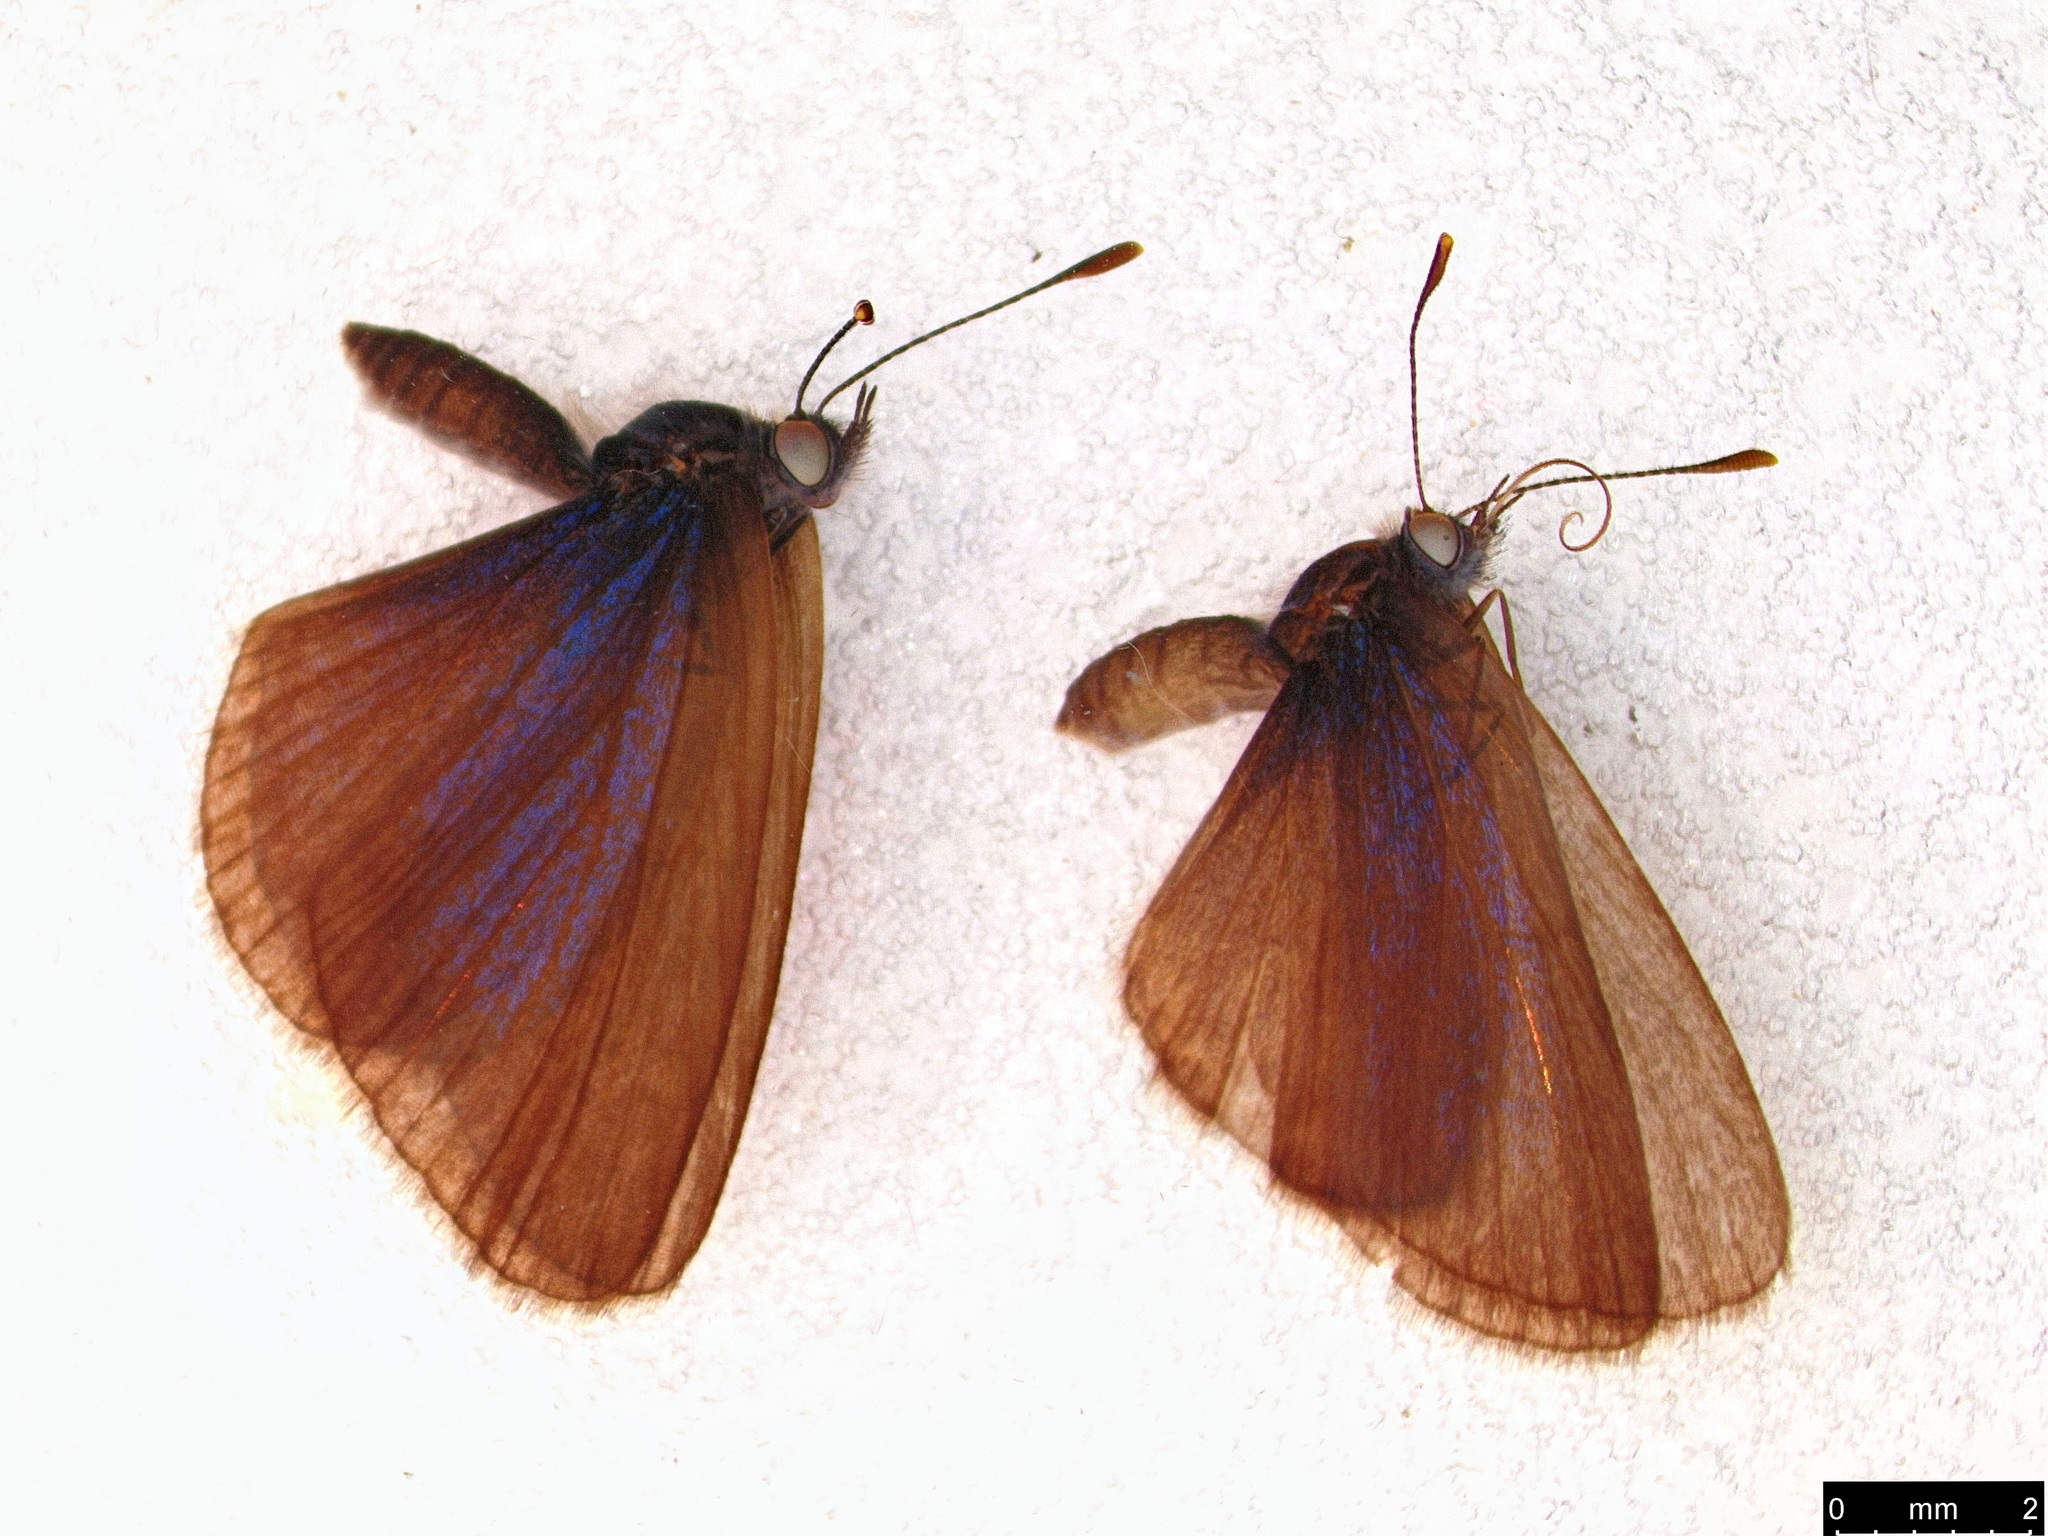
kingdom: Animalia
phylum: Arthropoda
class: Insecta
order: Lepidoptera
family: Lycaenidae
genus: Zizina
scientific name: Zizina labradus
